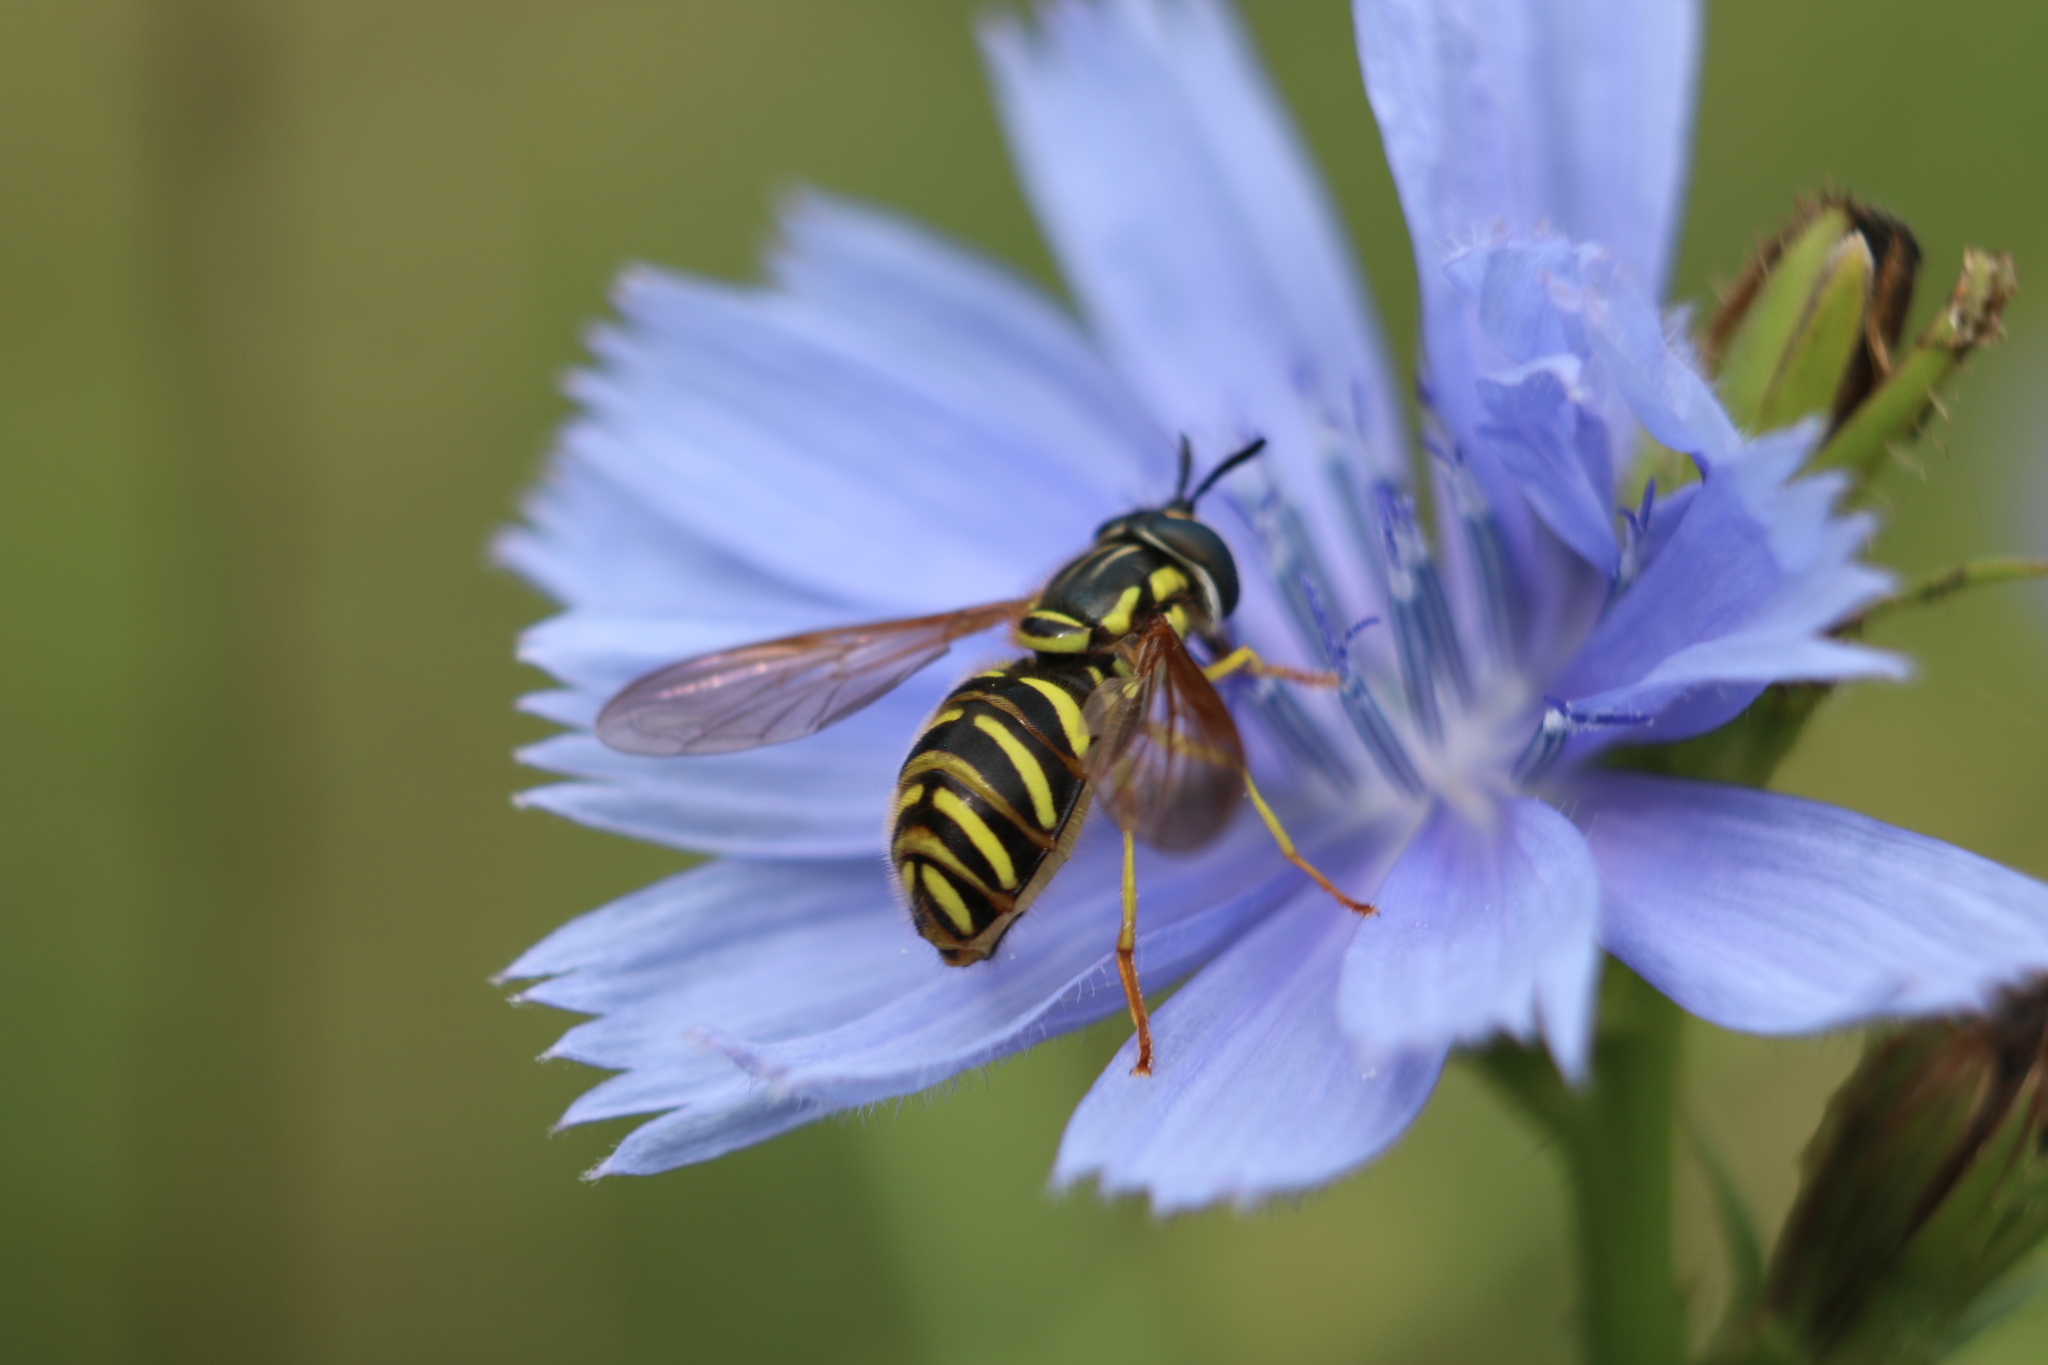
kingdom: Animalia
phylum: Arthropoda
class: Insecta
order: Diptera
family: Syrphidae
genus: Chrysotoxum
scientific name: Chrysotoxum pubescens
